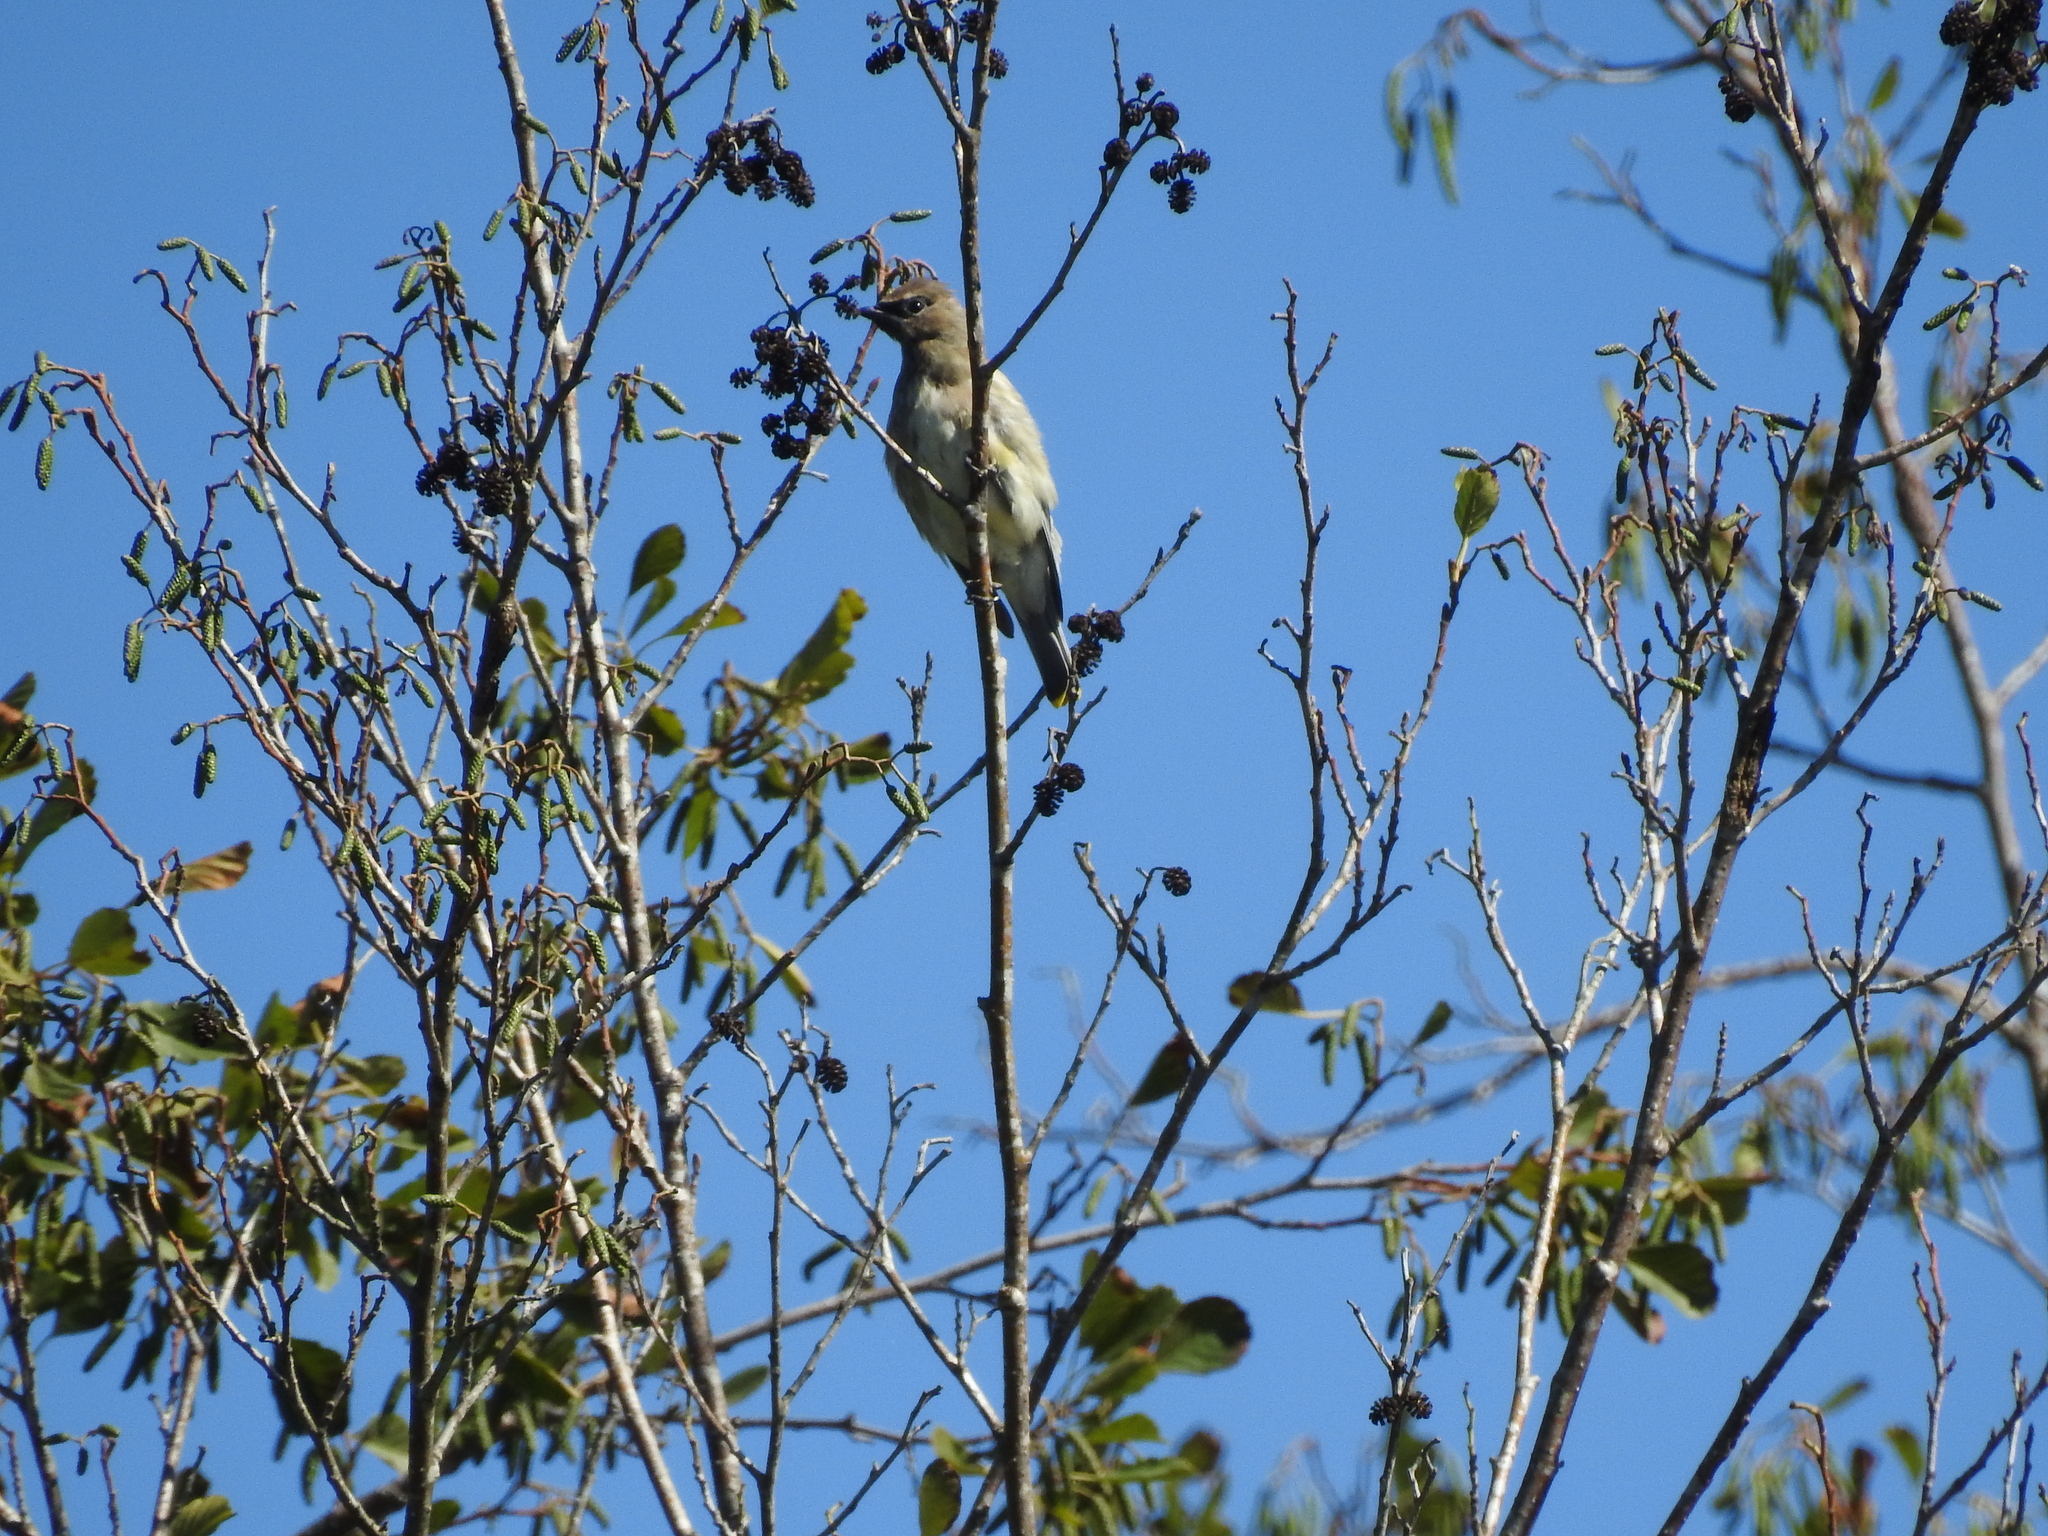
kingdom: Animalia
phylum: Chordata
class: Aves
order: Passeriformes
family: Bombycillidae
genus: Bombycilla
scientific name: Bombycilla cedrorum
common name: Cedar waxwing
